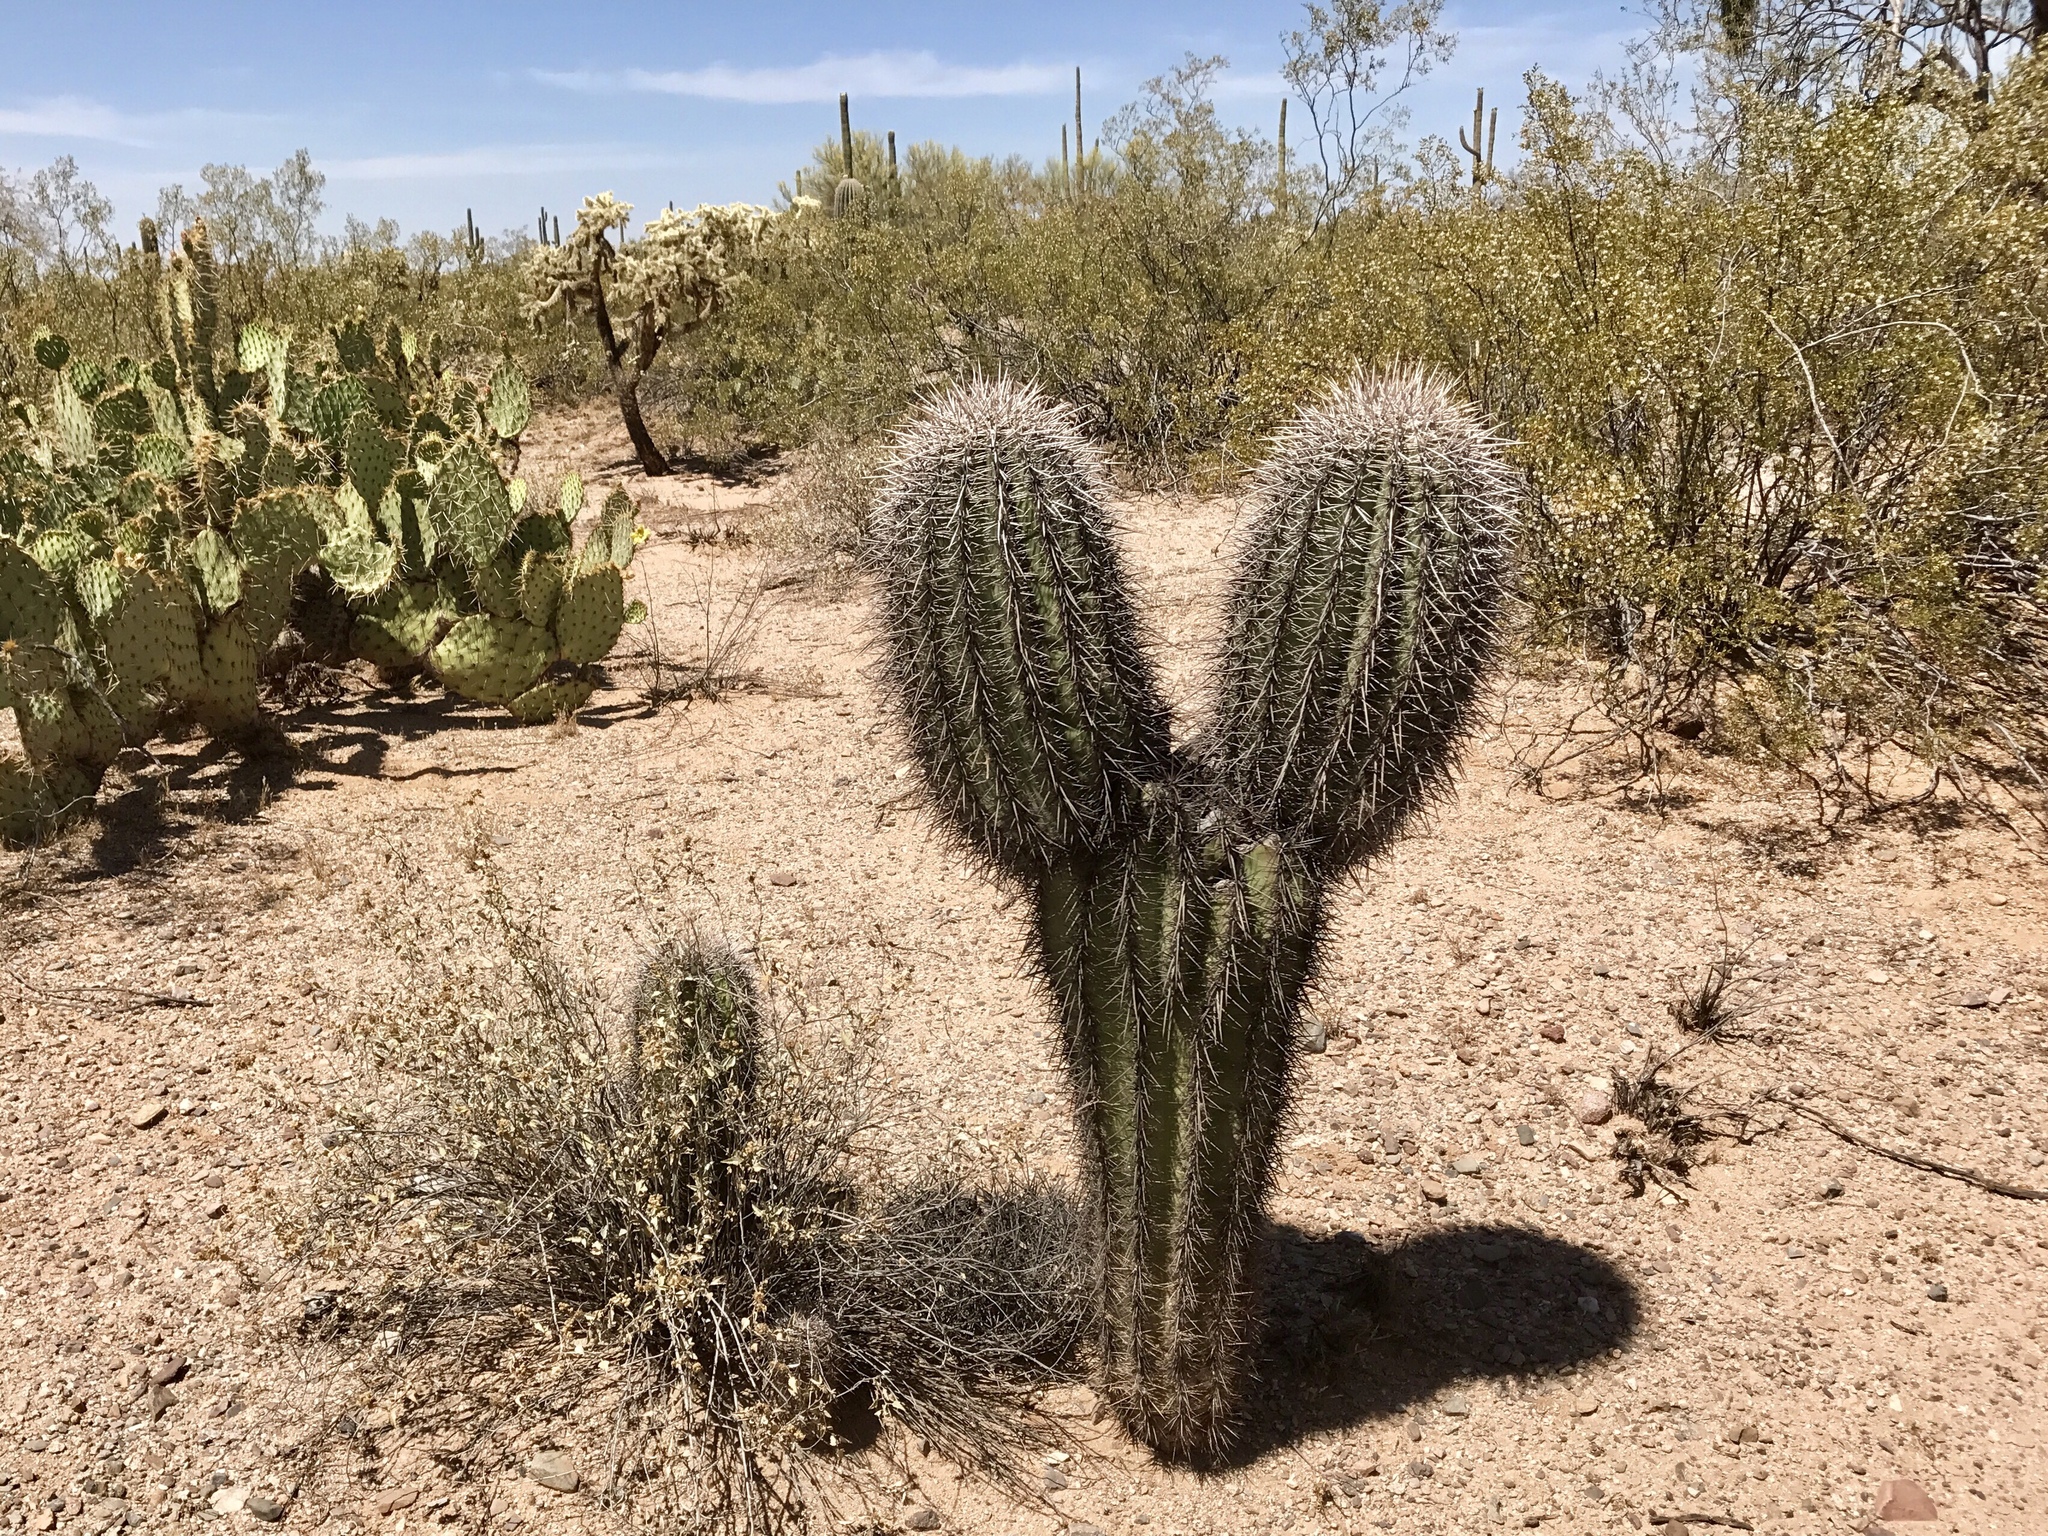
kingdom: Plantae
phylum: Tracheophyta
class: Magnoliopsida
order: Caryophyllales
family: Cactaceae
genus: Carnegiea
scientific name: Carnegiea gigantea
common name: Saguaro
